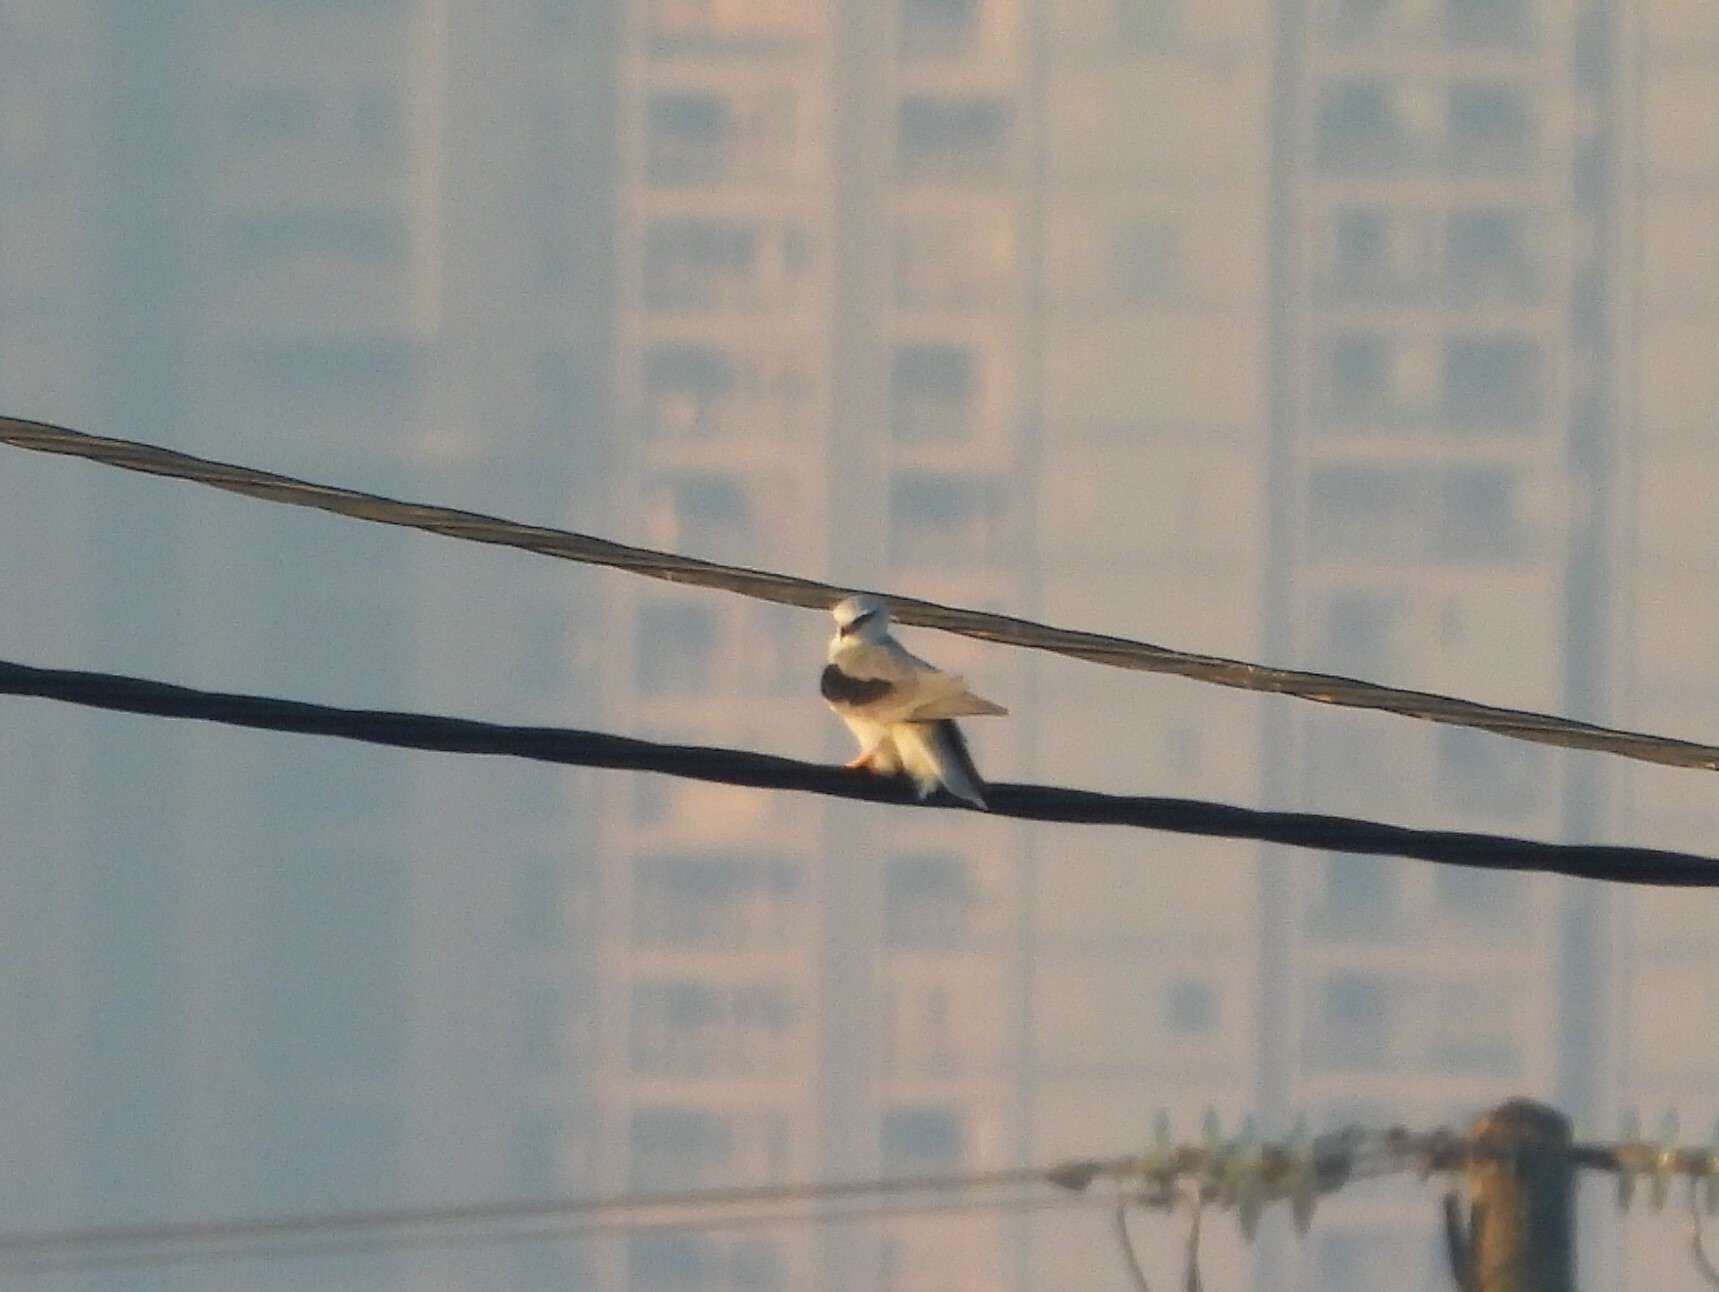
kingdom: Animalia
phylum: Chordata
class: Aves
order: Accipitriformes
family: Accipitridae
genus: Elanus
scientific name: Elanus caeruleus
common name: Black-winged kite
